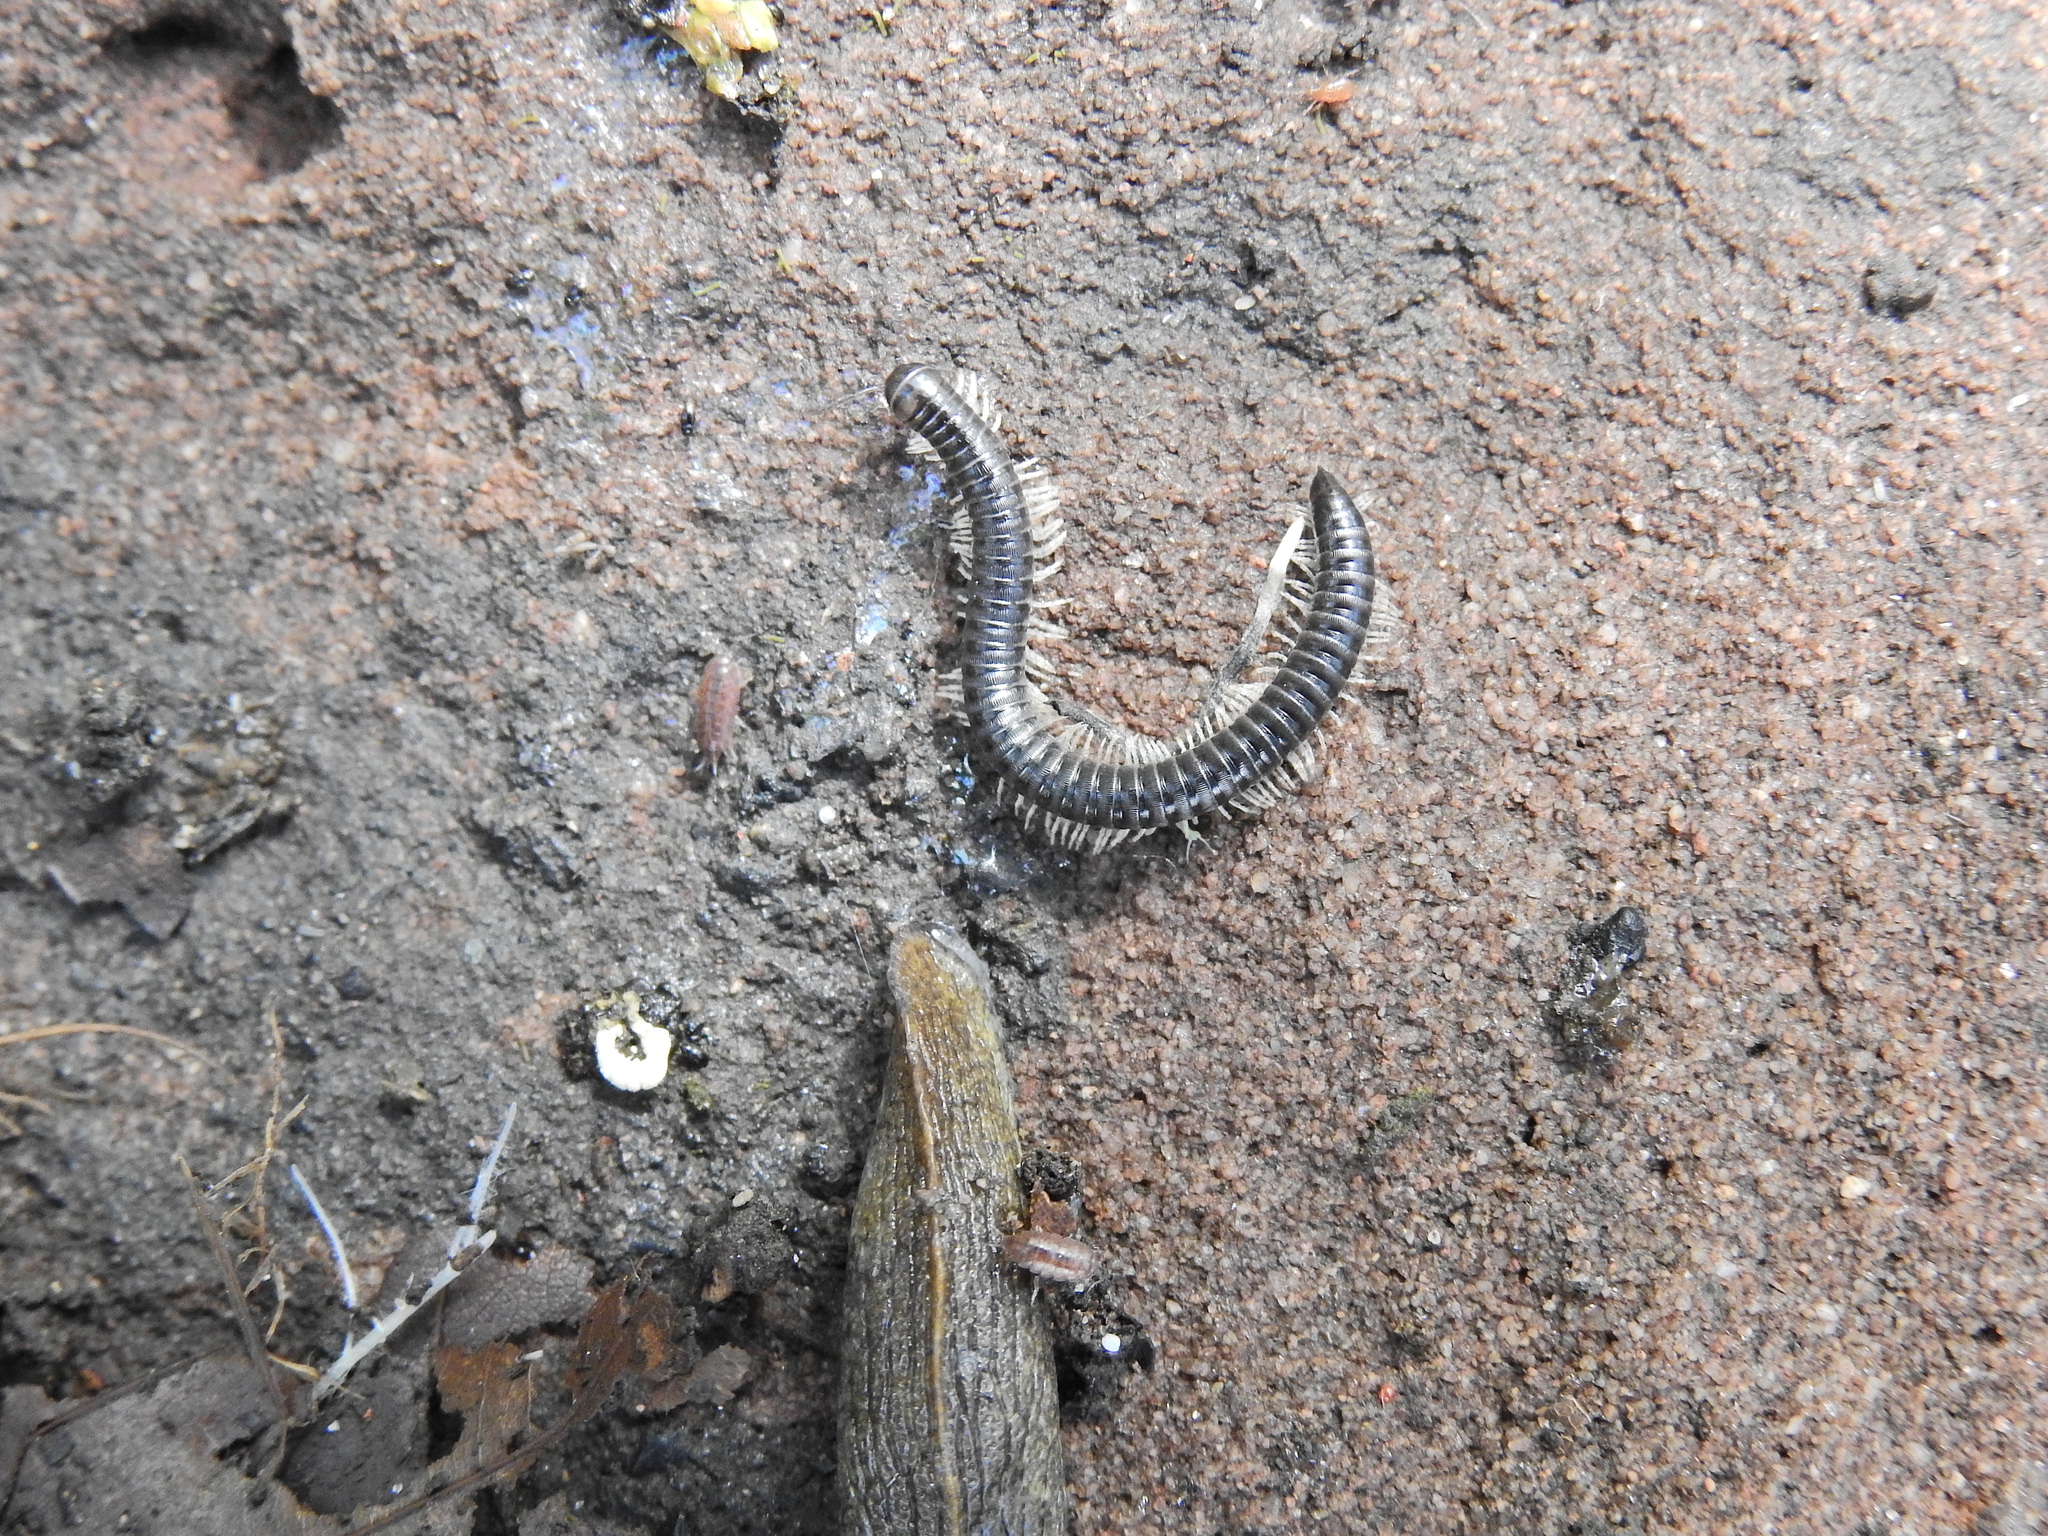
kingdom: Animalia
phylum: Arthropoda
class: Diplopoda
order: Julida
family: Julidae
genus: Tachypodoiulus
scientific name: Tachypodoiulus niger
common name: White-legged snake millipede
